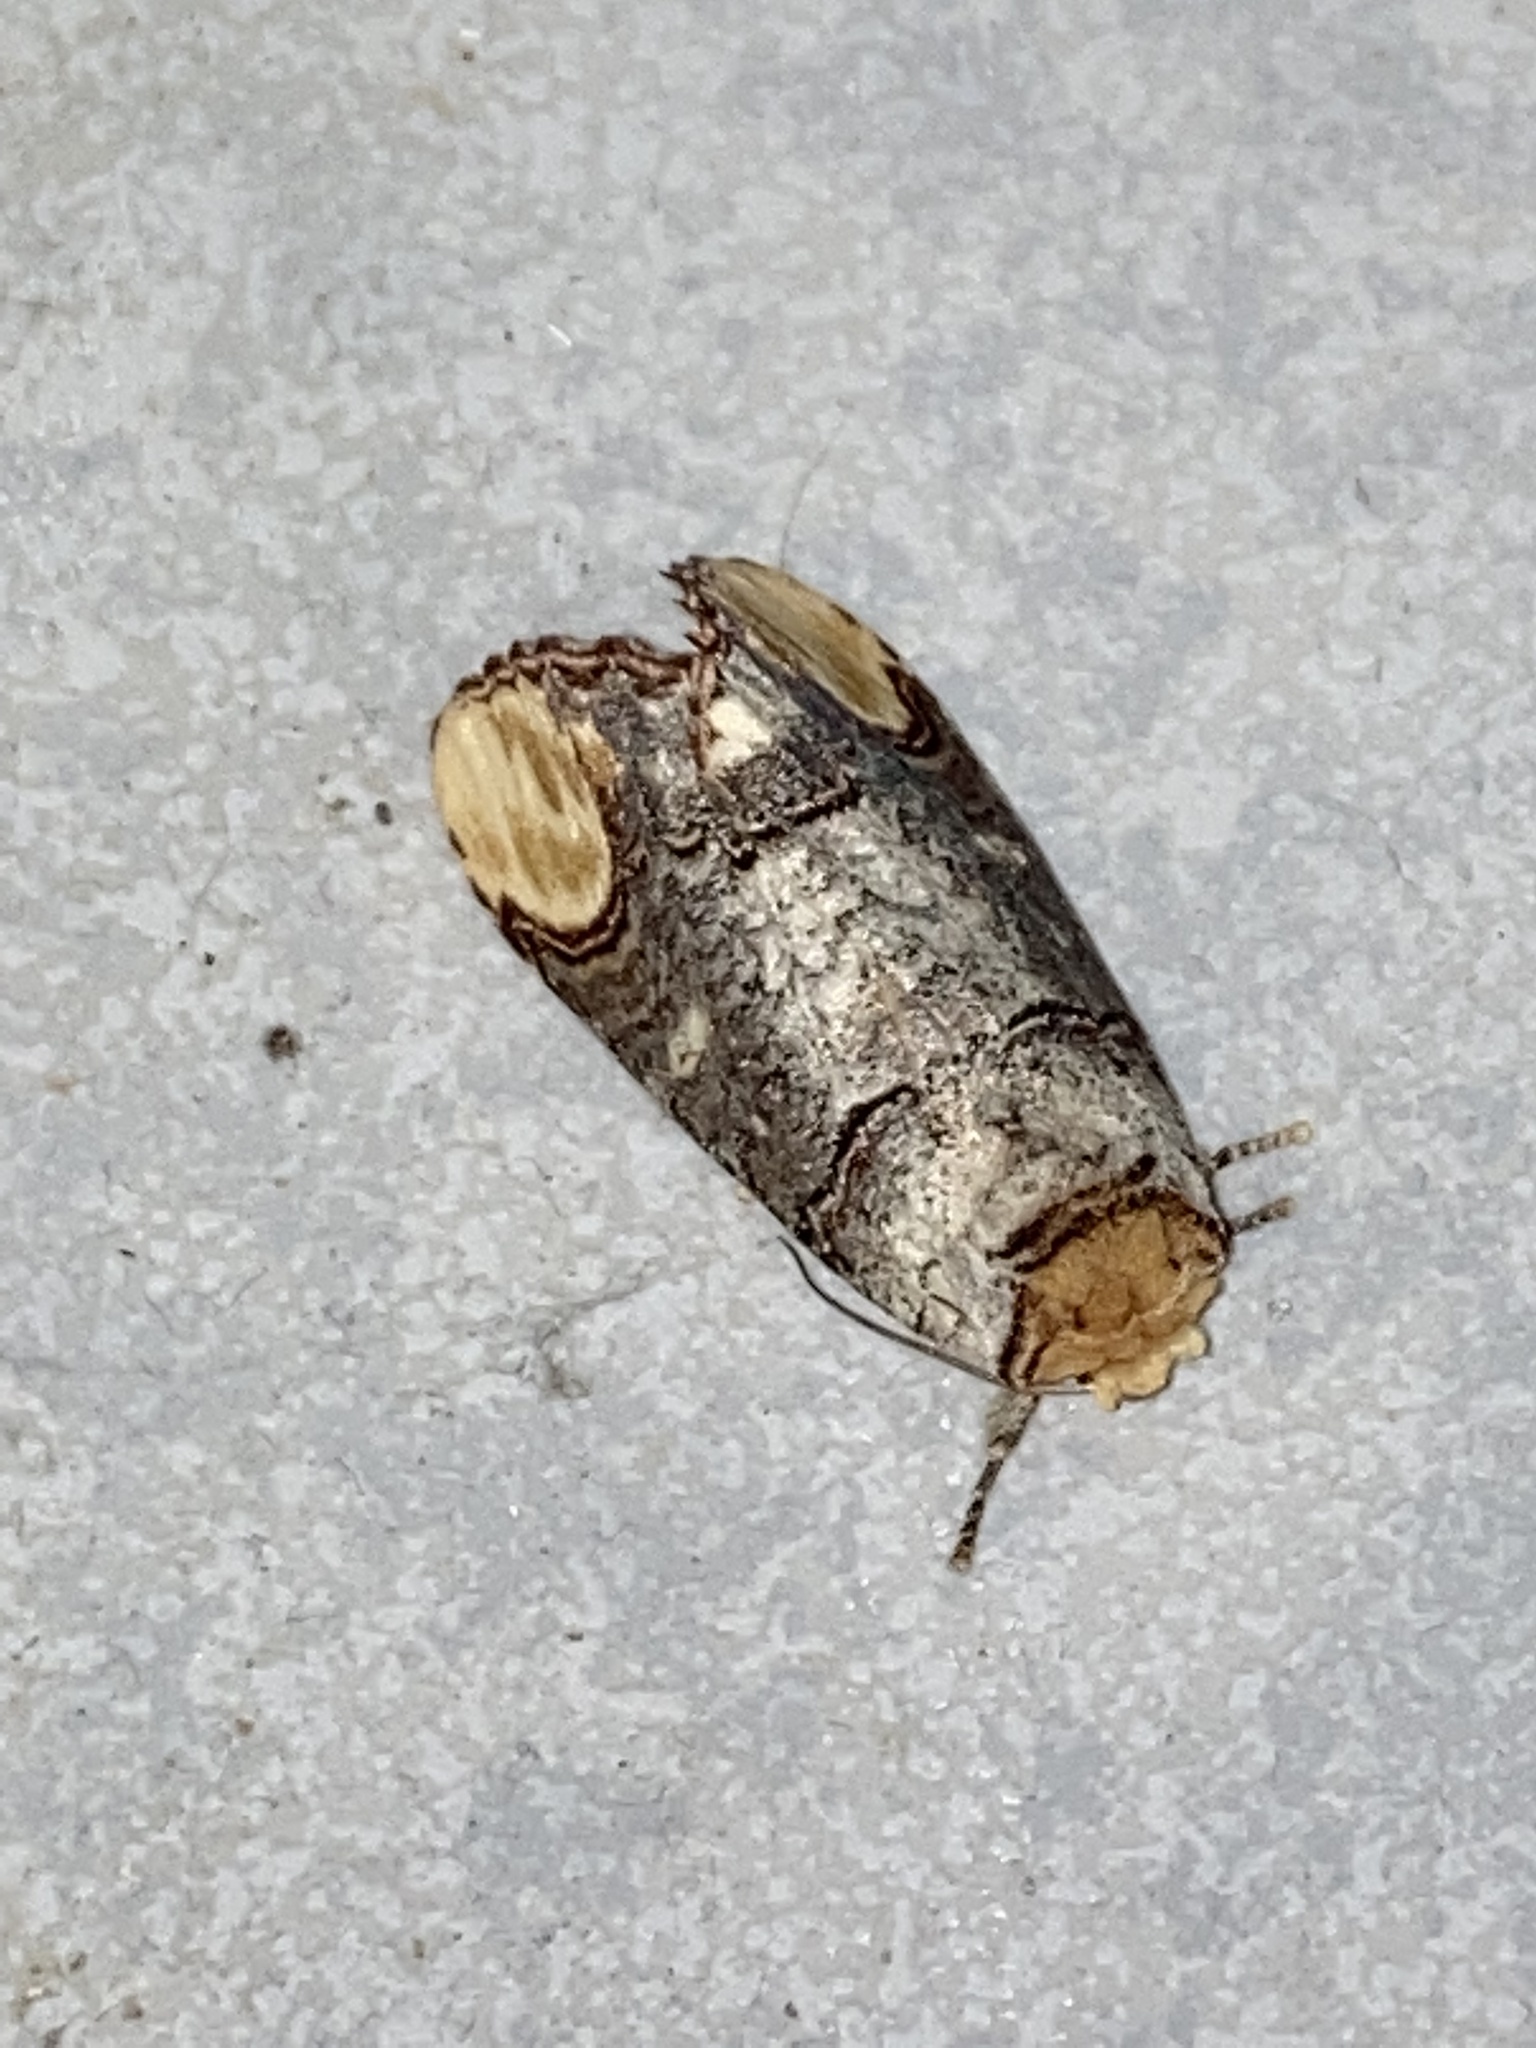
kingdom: Animalia
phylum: Arthropoda
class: Insecta
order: Lepidoptera
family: Notodontidae
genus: Phalera
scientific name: Phalera bucephala
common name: Buff-tip
